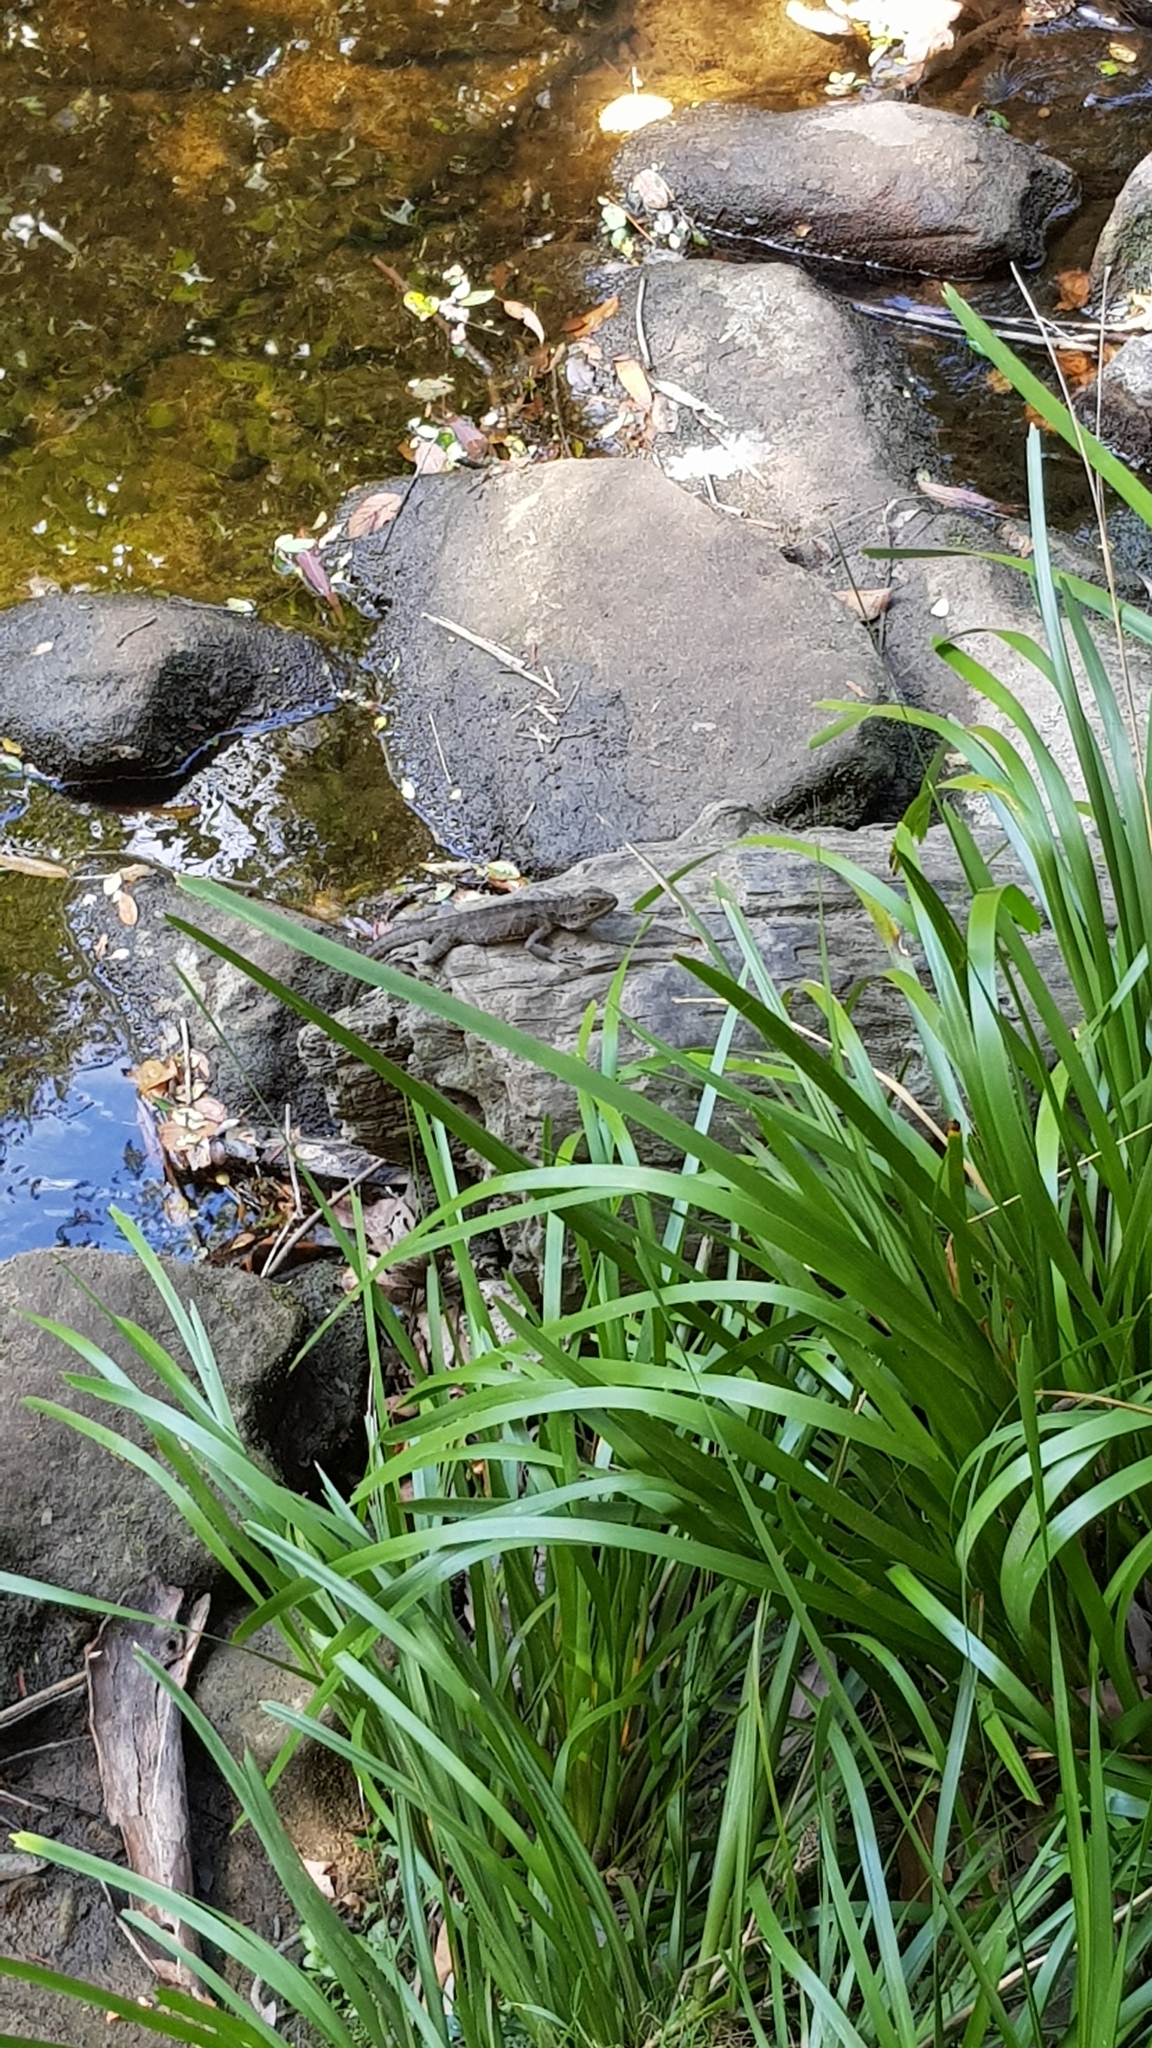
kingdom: Animalia
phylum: Chordata
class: Squamata
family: Agamidae
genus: Intellagama
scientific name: Intellagama lesueurii
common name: Eastern water dragon
